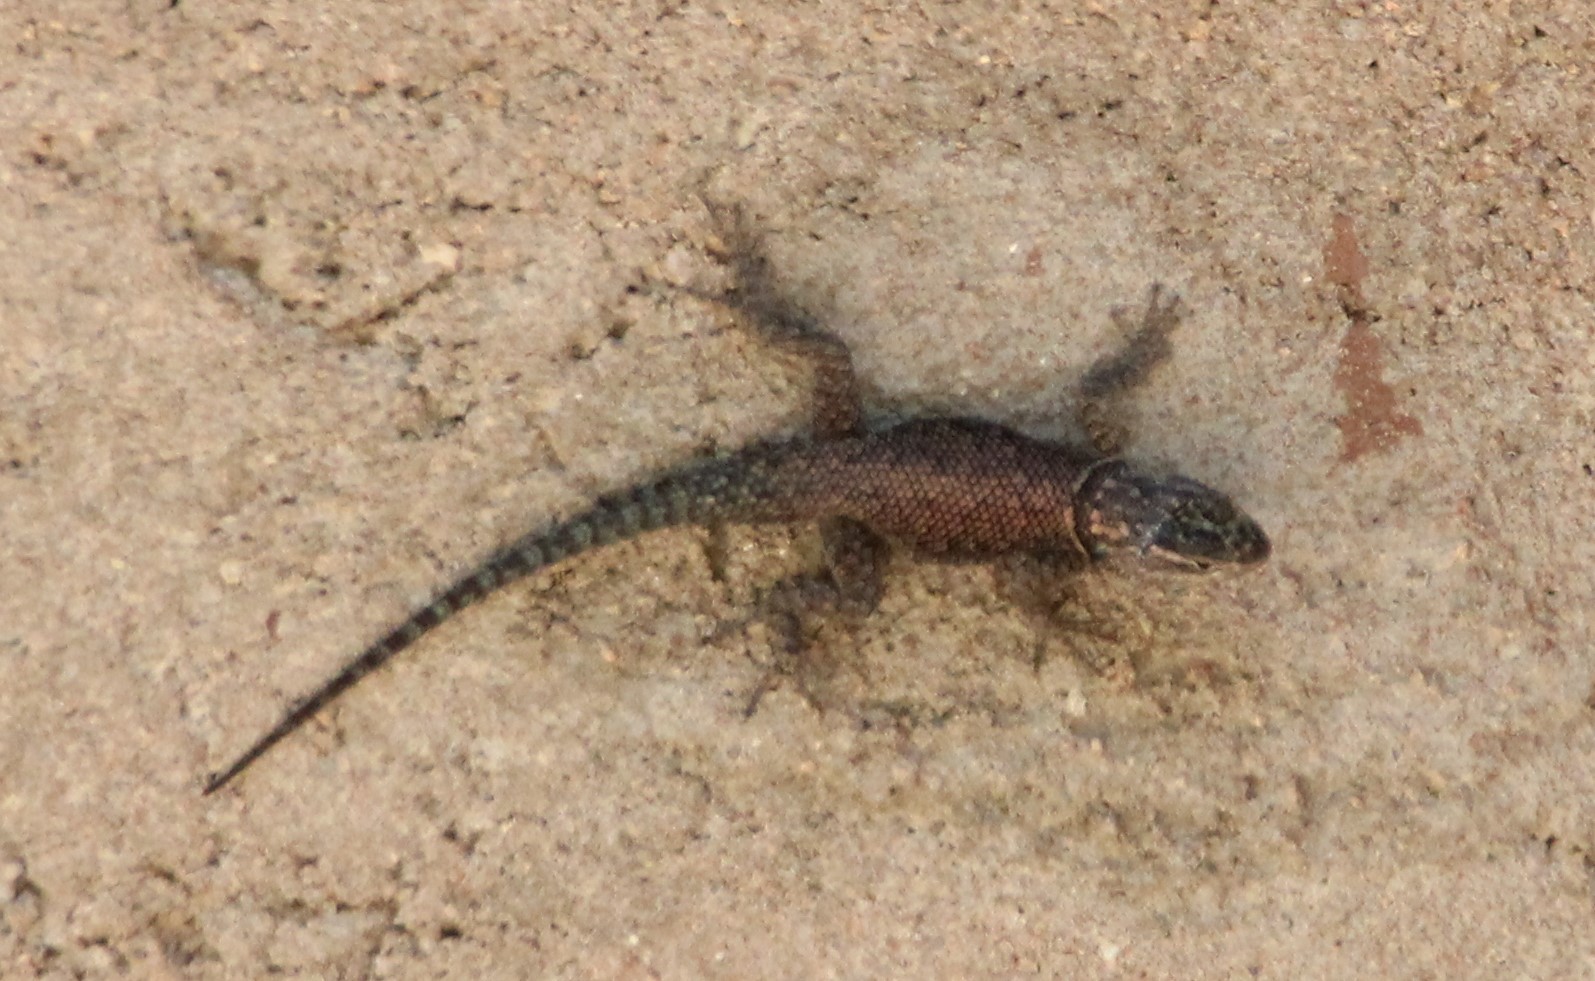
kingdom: Animalia
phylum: Chordata
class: Squamata
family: Phrynosomatidae
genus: Sceloporus
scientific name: Sceloporus jarrovii
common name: Yarrow's spiny lizard
